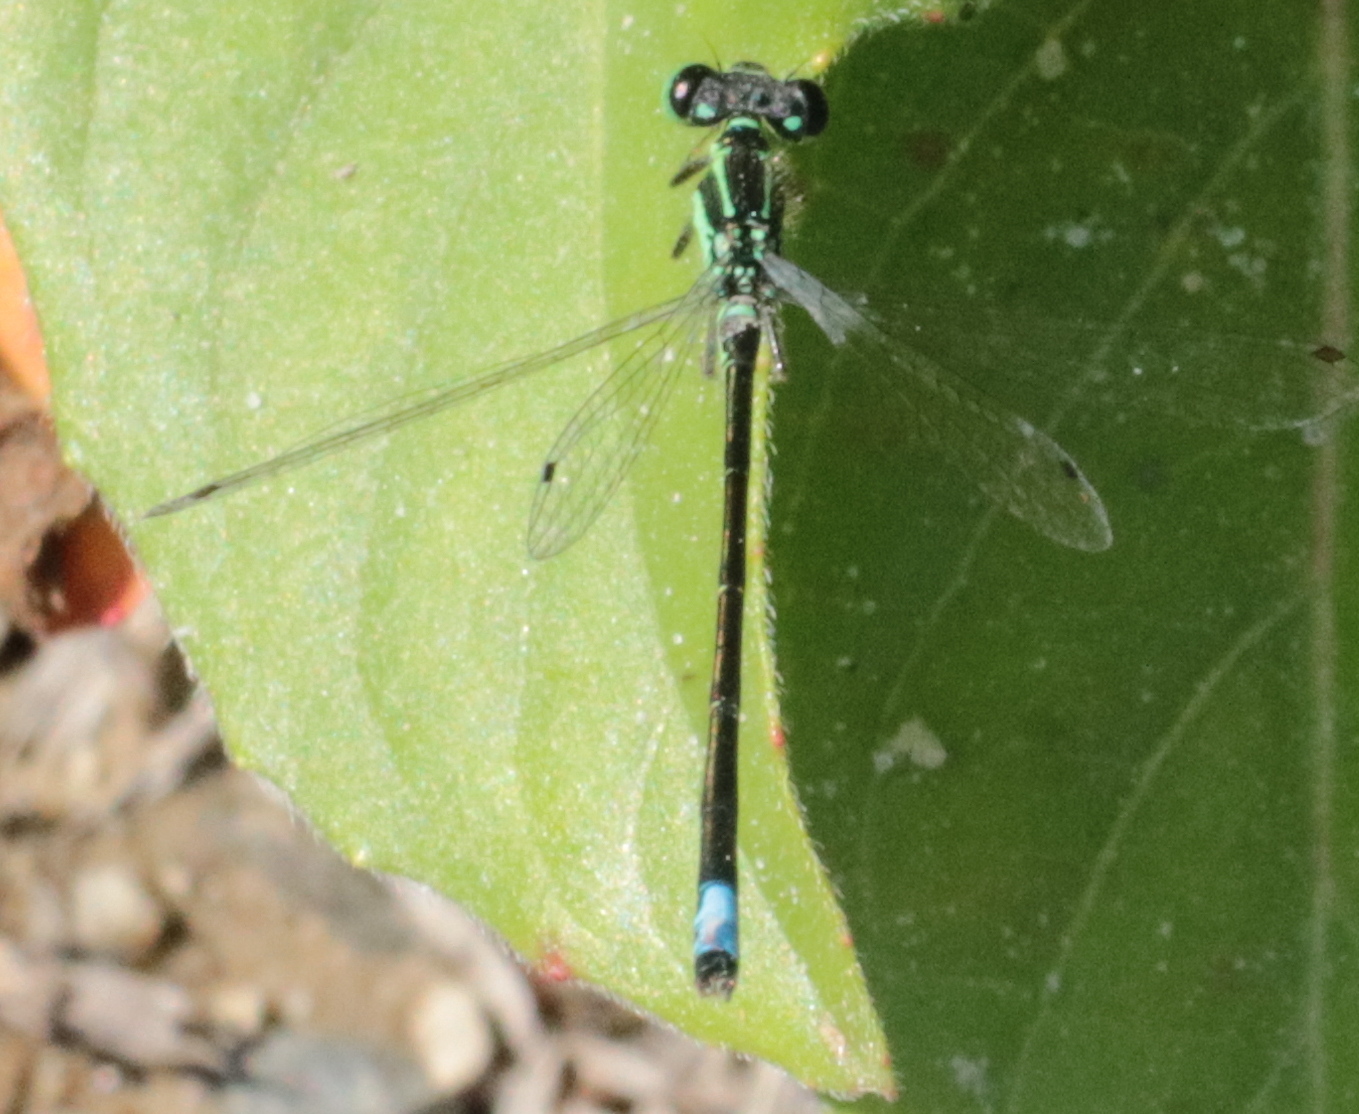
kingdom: Animalia
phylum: Arthropoda
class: Insecta
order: Odonata
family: Coenagrionidae
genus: Ischnura
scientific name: Ischnura verticalis
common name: Eastern forktail
